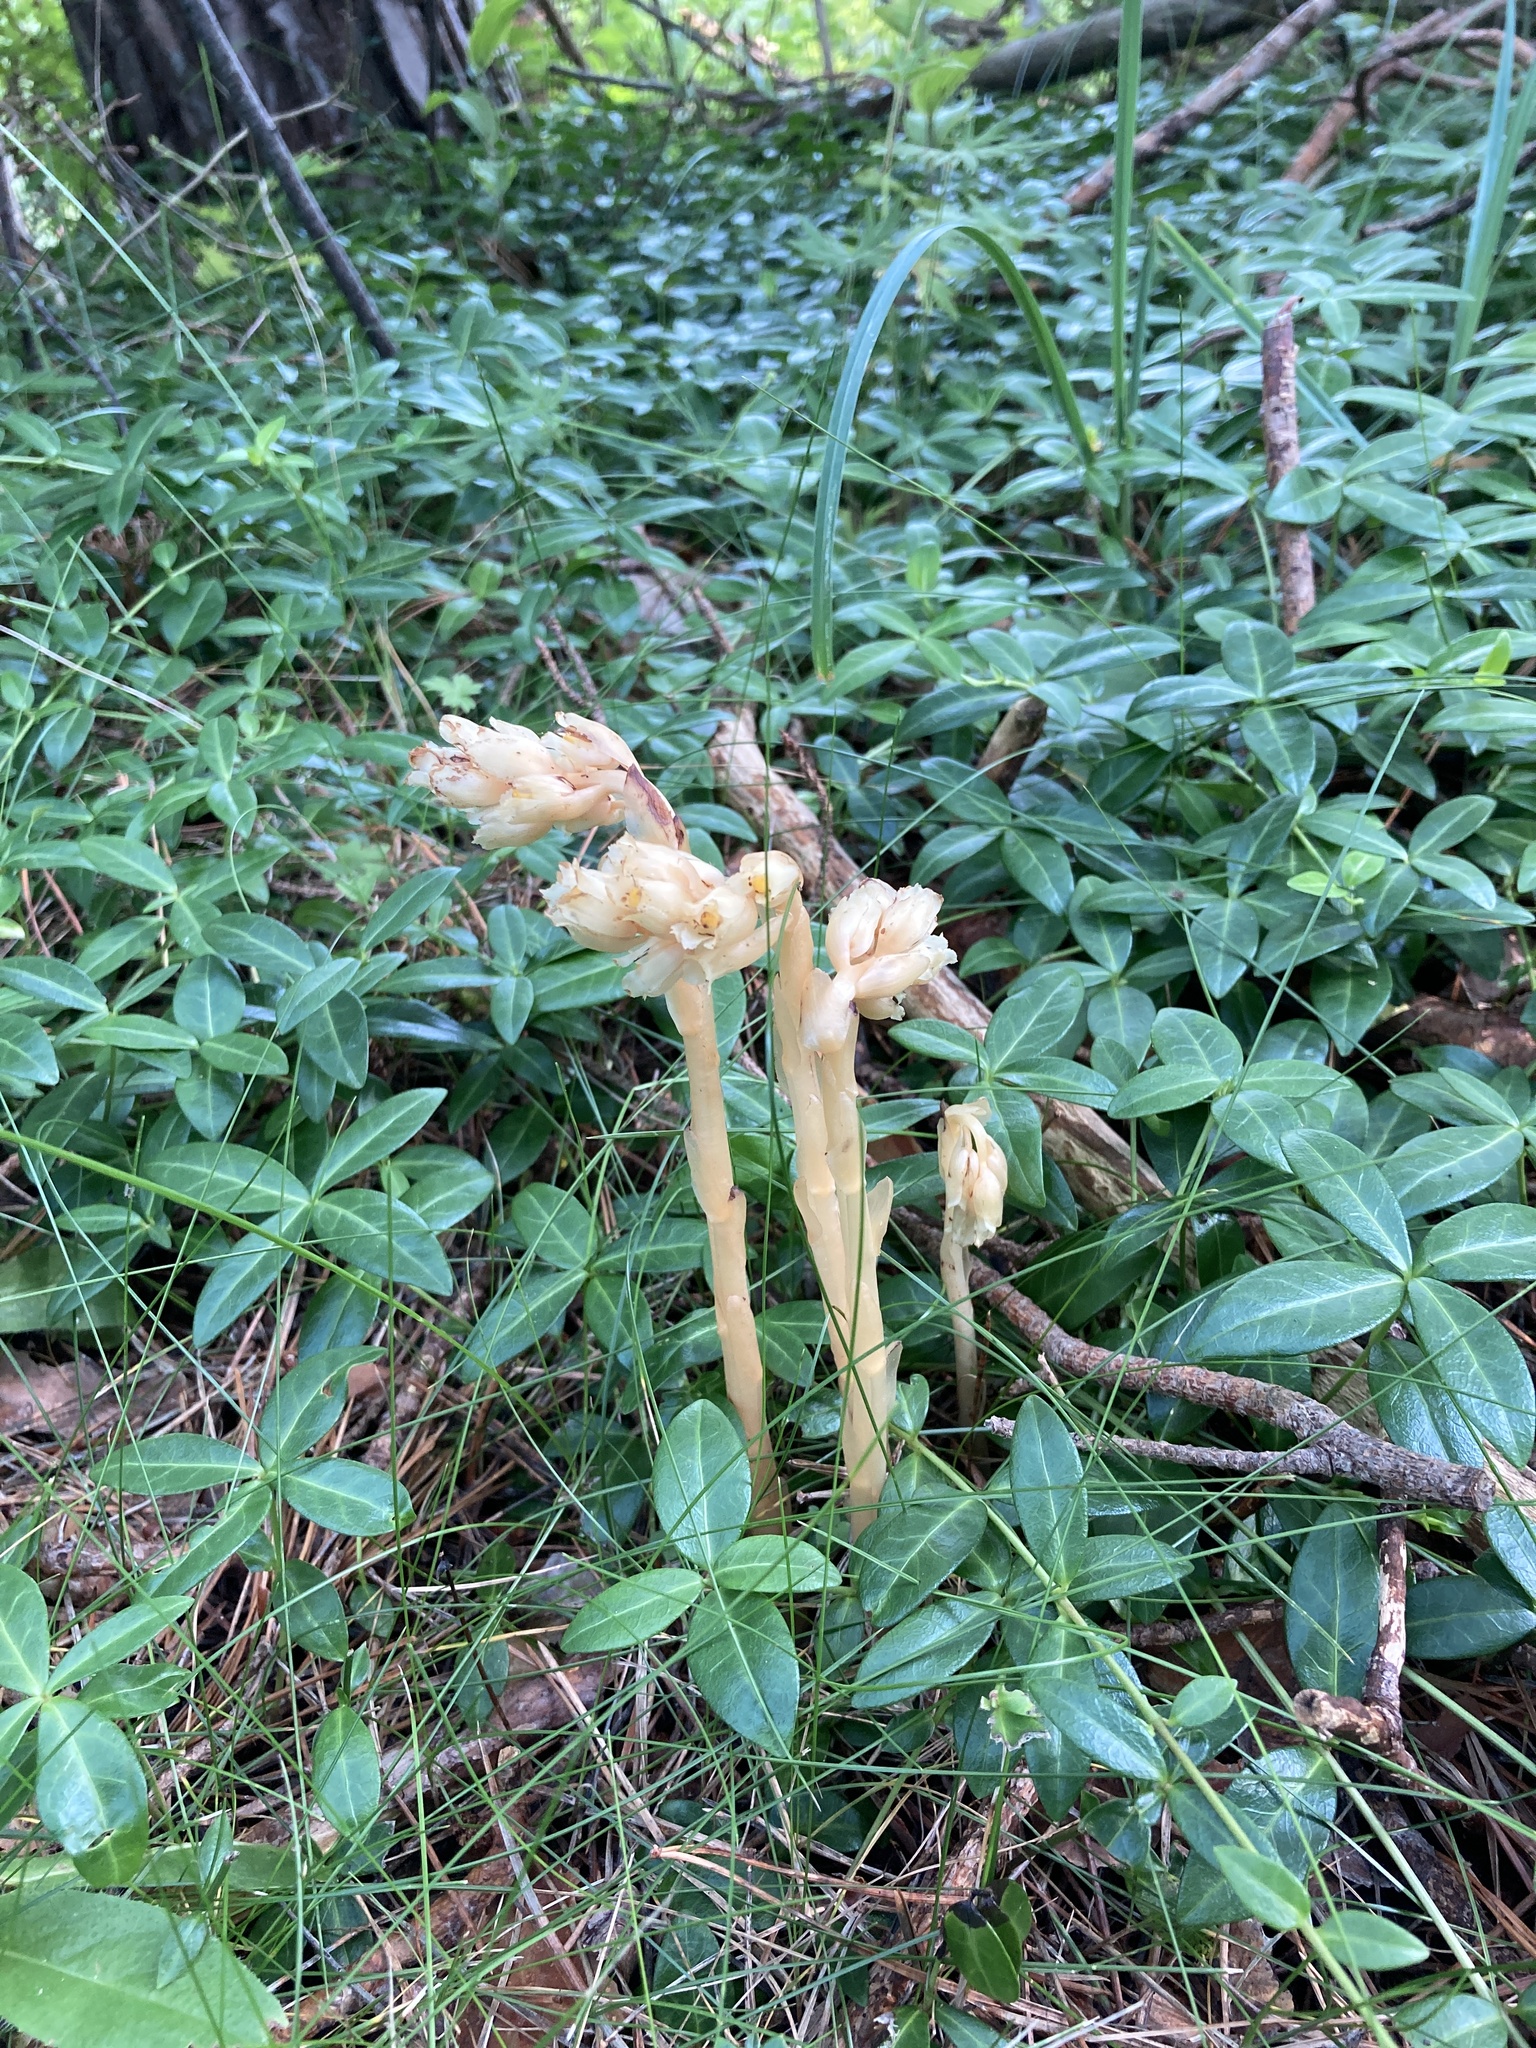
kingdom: Plantae
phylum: Tracheophyta
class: Magnoliopsida
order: Ericales
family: Ericaceae
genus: Hypopitys
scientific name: Hypopitys monotropa
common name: Yellow bird's-nest
